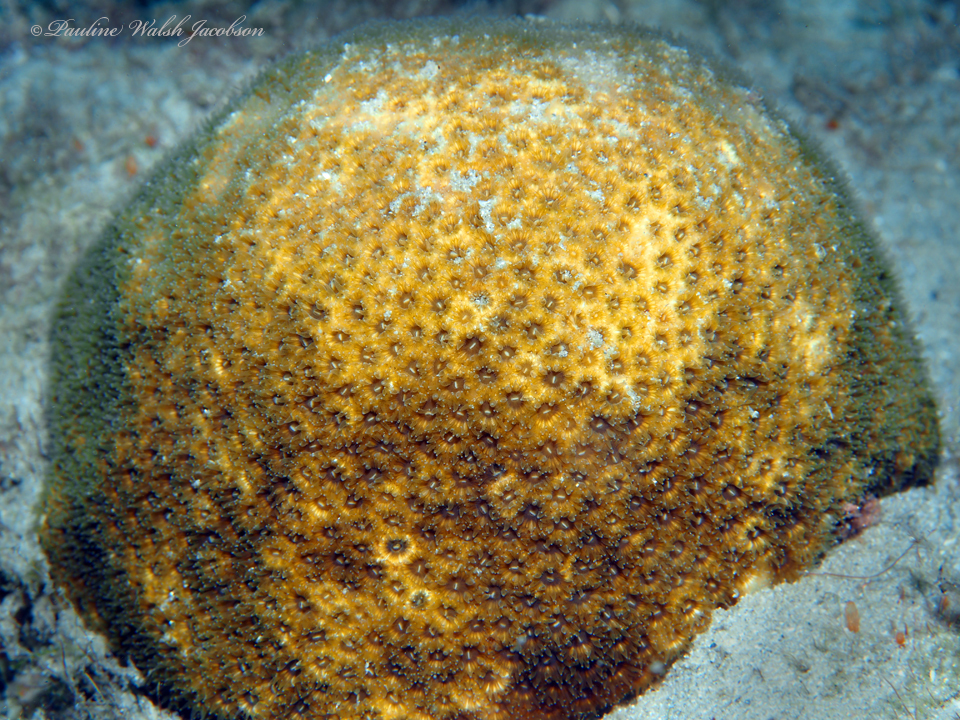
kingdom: Animalia
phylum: Cnidaria
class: Anthozoa
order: Scleractinia
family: Faviidae
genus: Solenastrea
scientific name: Solenastrea bournoni
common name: Smooth star coral
